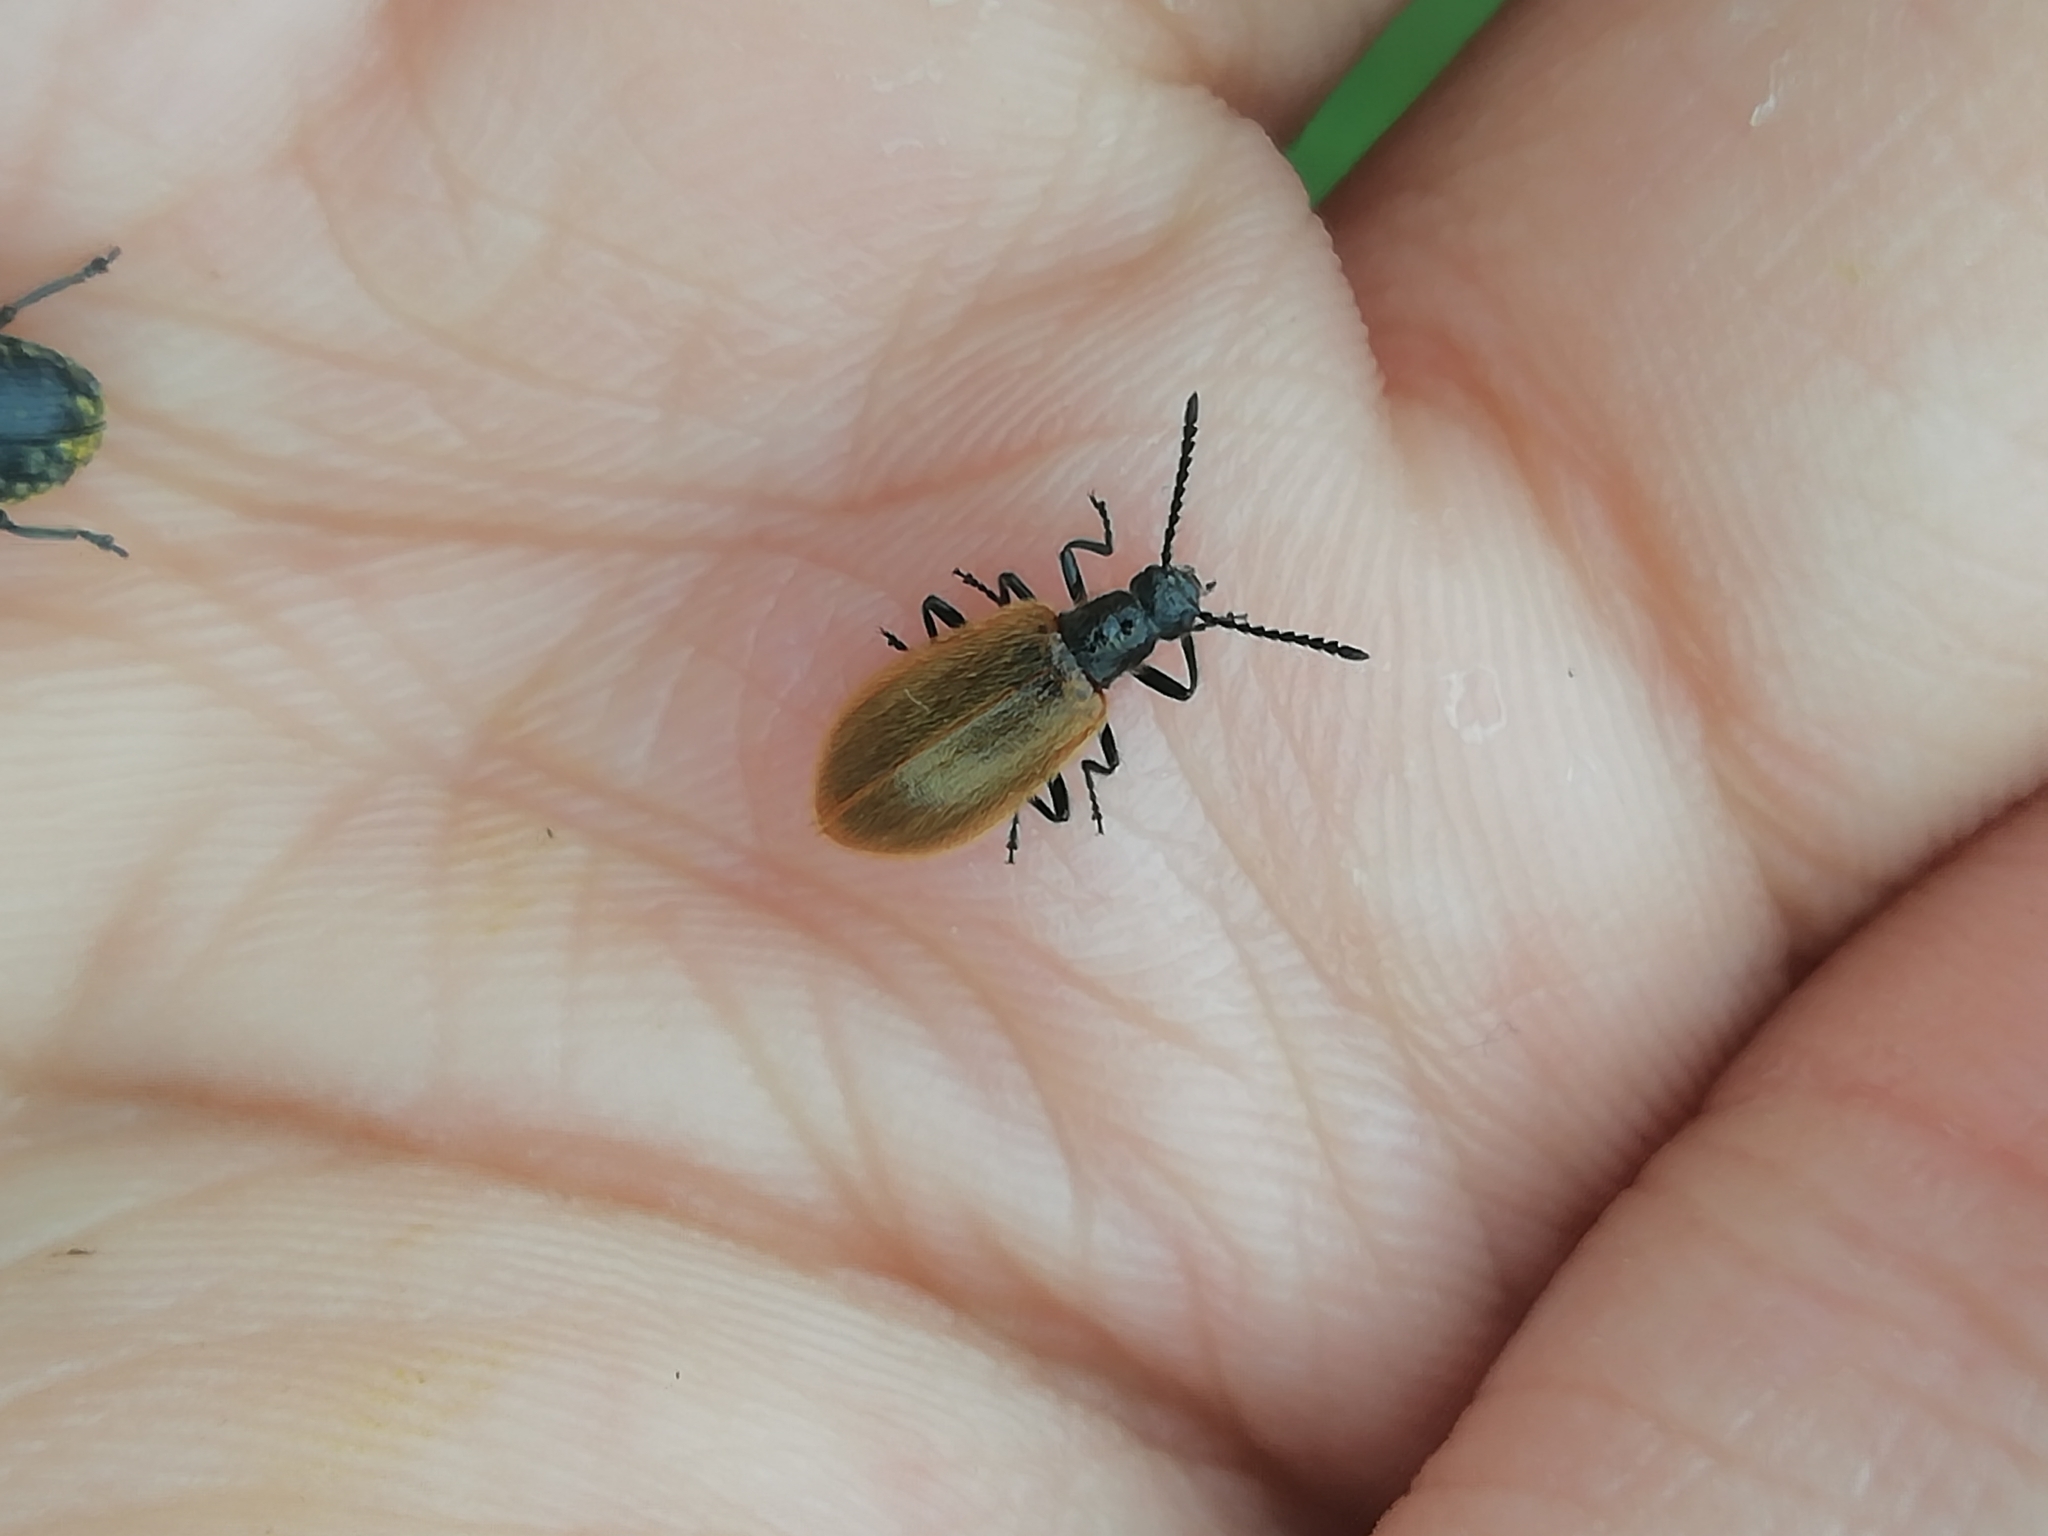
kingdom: Animalia
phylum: Arthropoda
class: Insecta
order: Coleoptera
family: Tenebrionidae
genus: Lagria
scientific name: Lagria hirta
